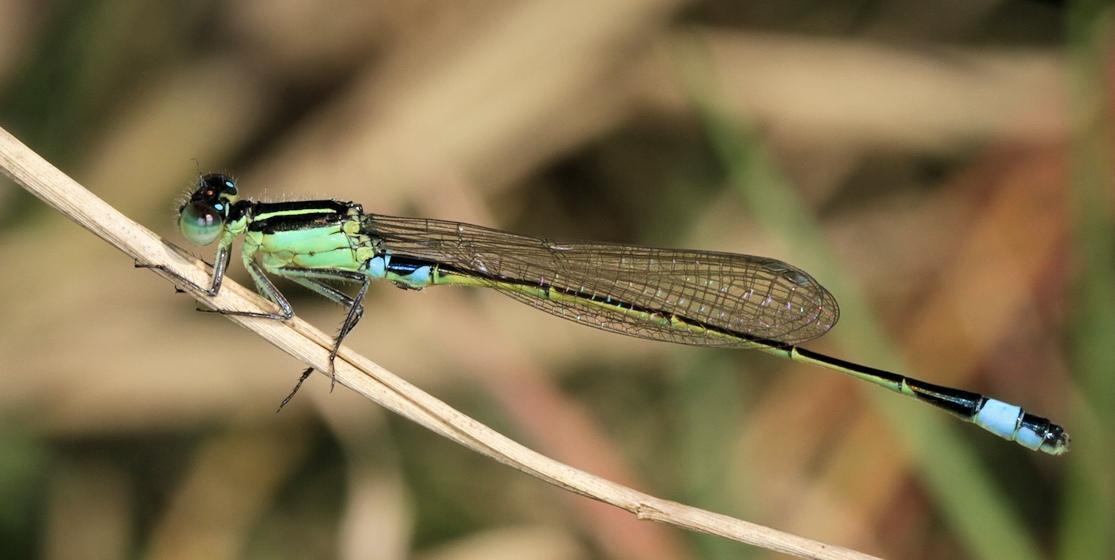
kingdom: Animalia
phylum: Arthropoda
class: Insecta
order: Odonata
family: Coenagrionidae
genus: Ischnura
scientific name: Ischnura senegalensis
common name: Tropical bluetail
